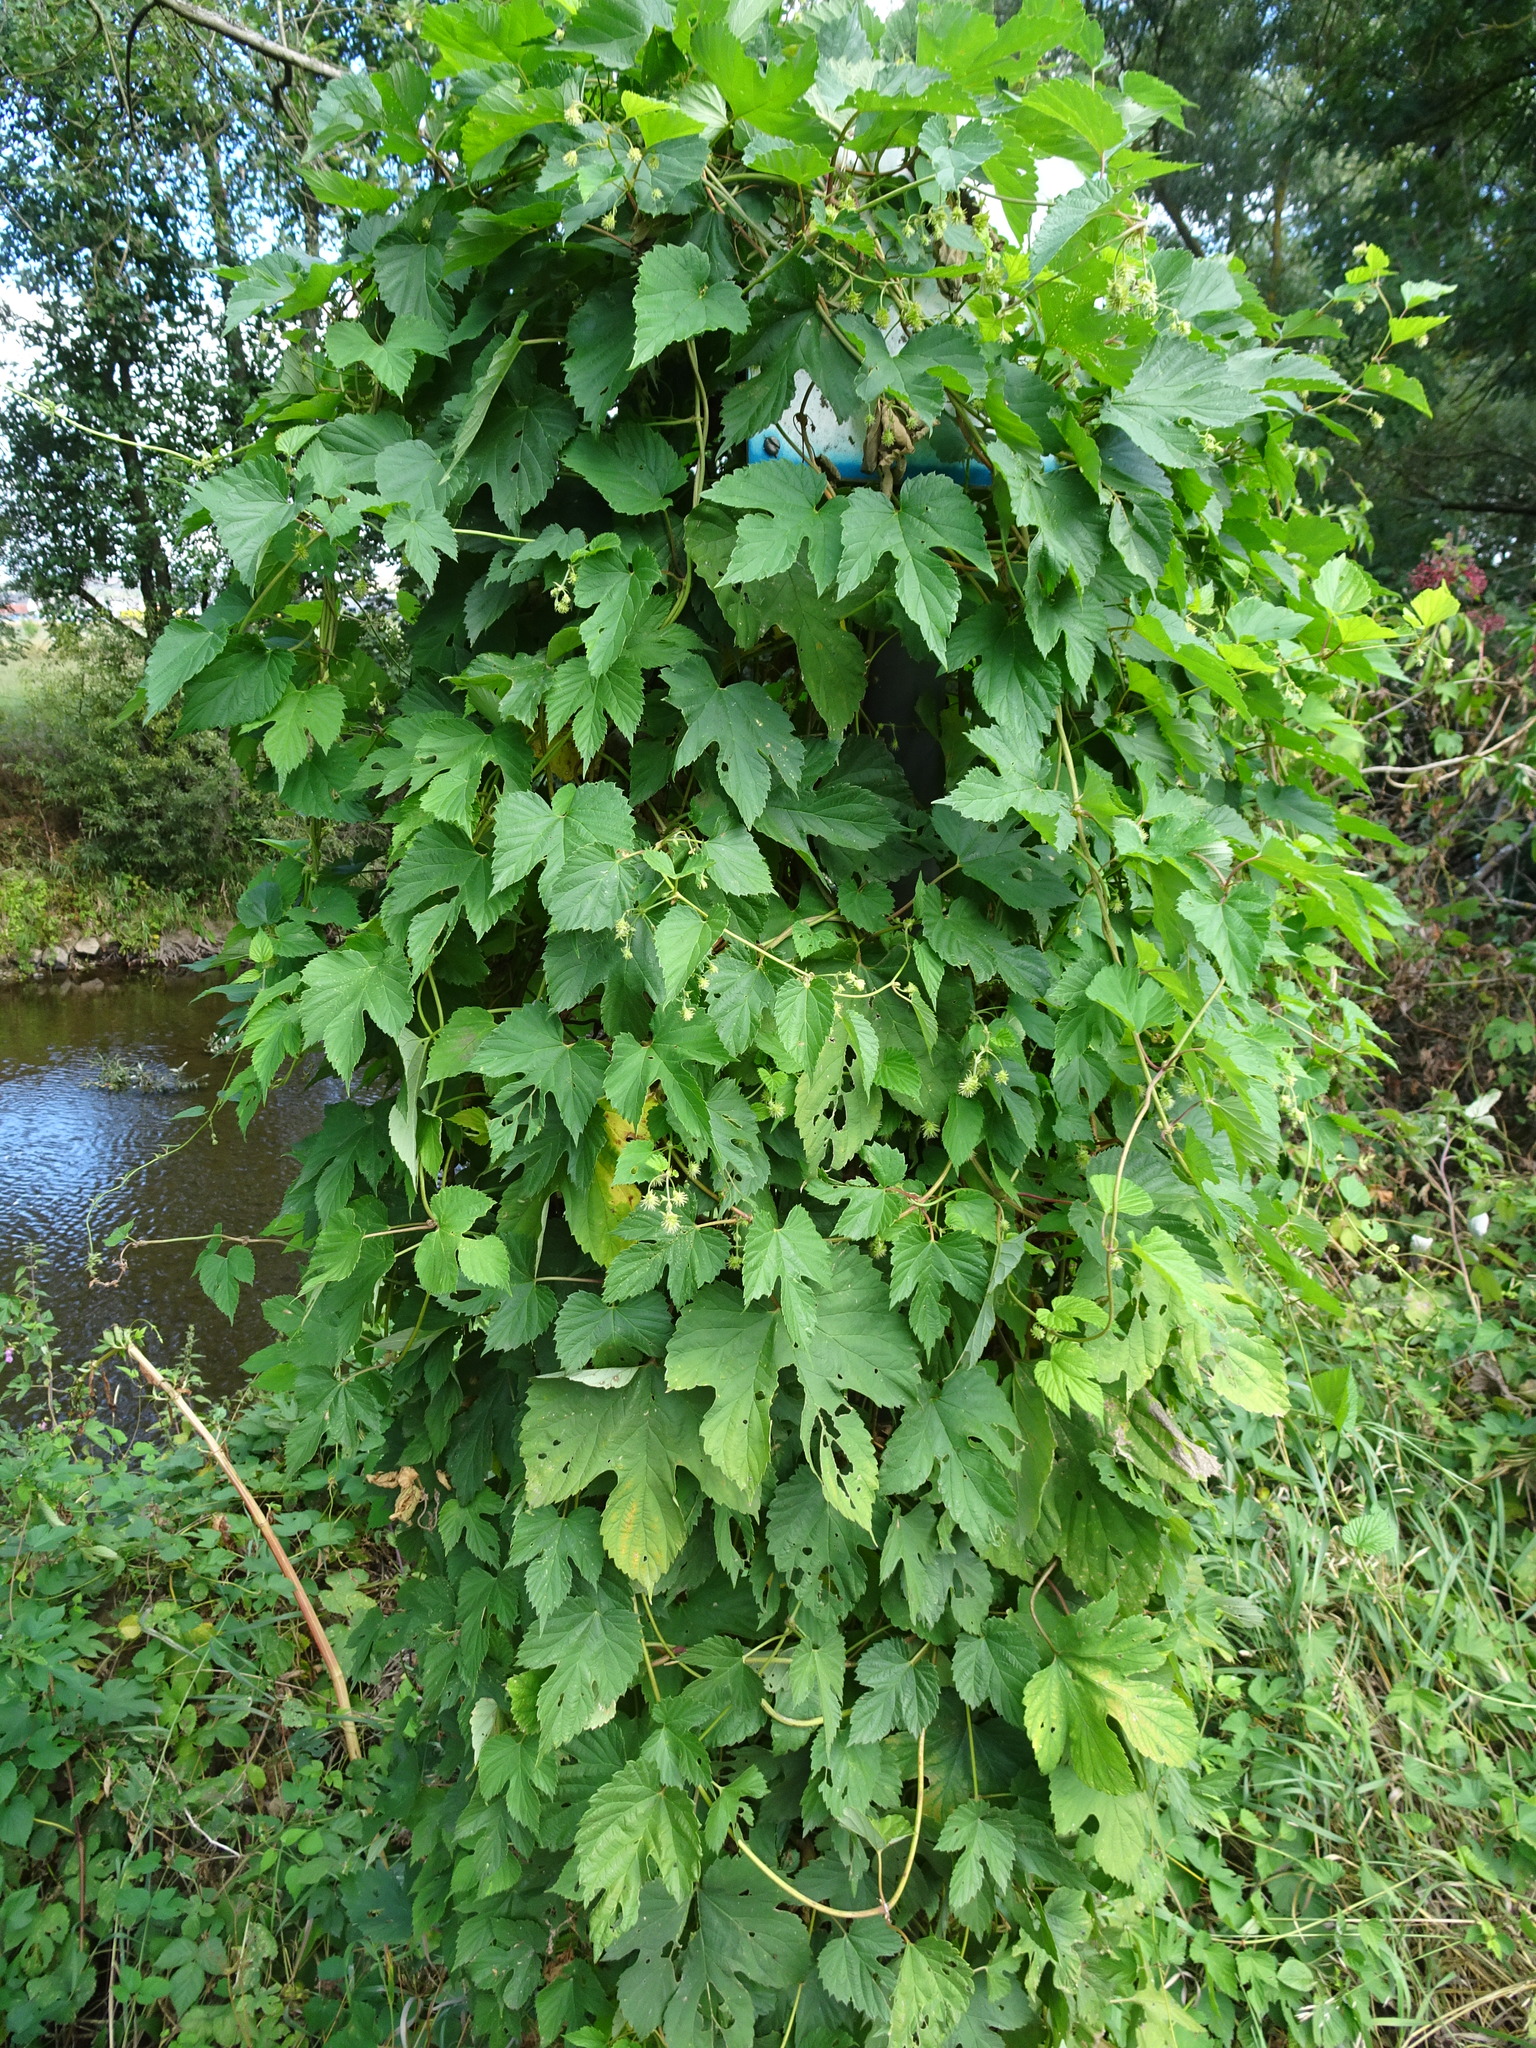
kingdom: Plantae
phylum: Tracheophyta
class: Magnoliopsida
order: Rosales
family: Cannabaceae
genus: Humulus
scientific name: Humulus lupulus
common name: Hop
